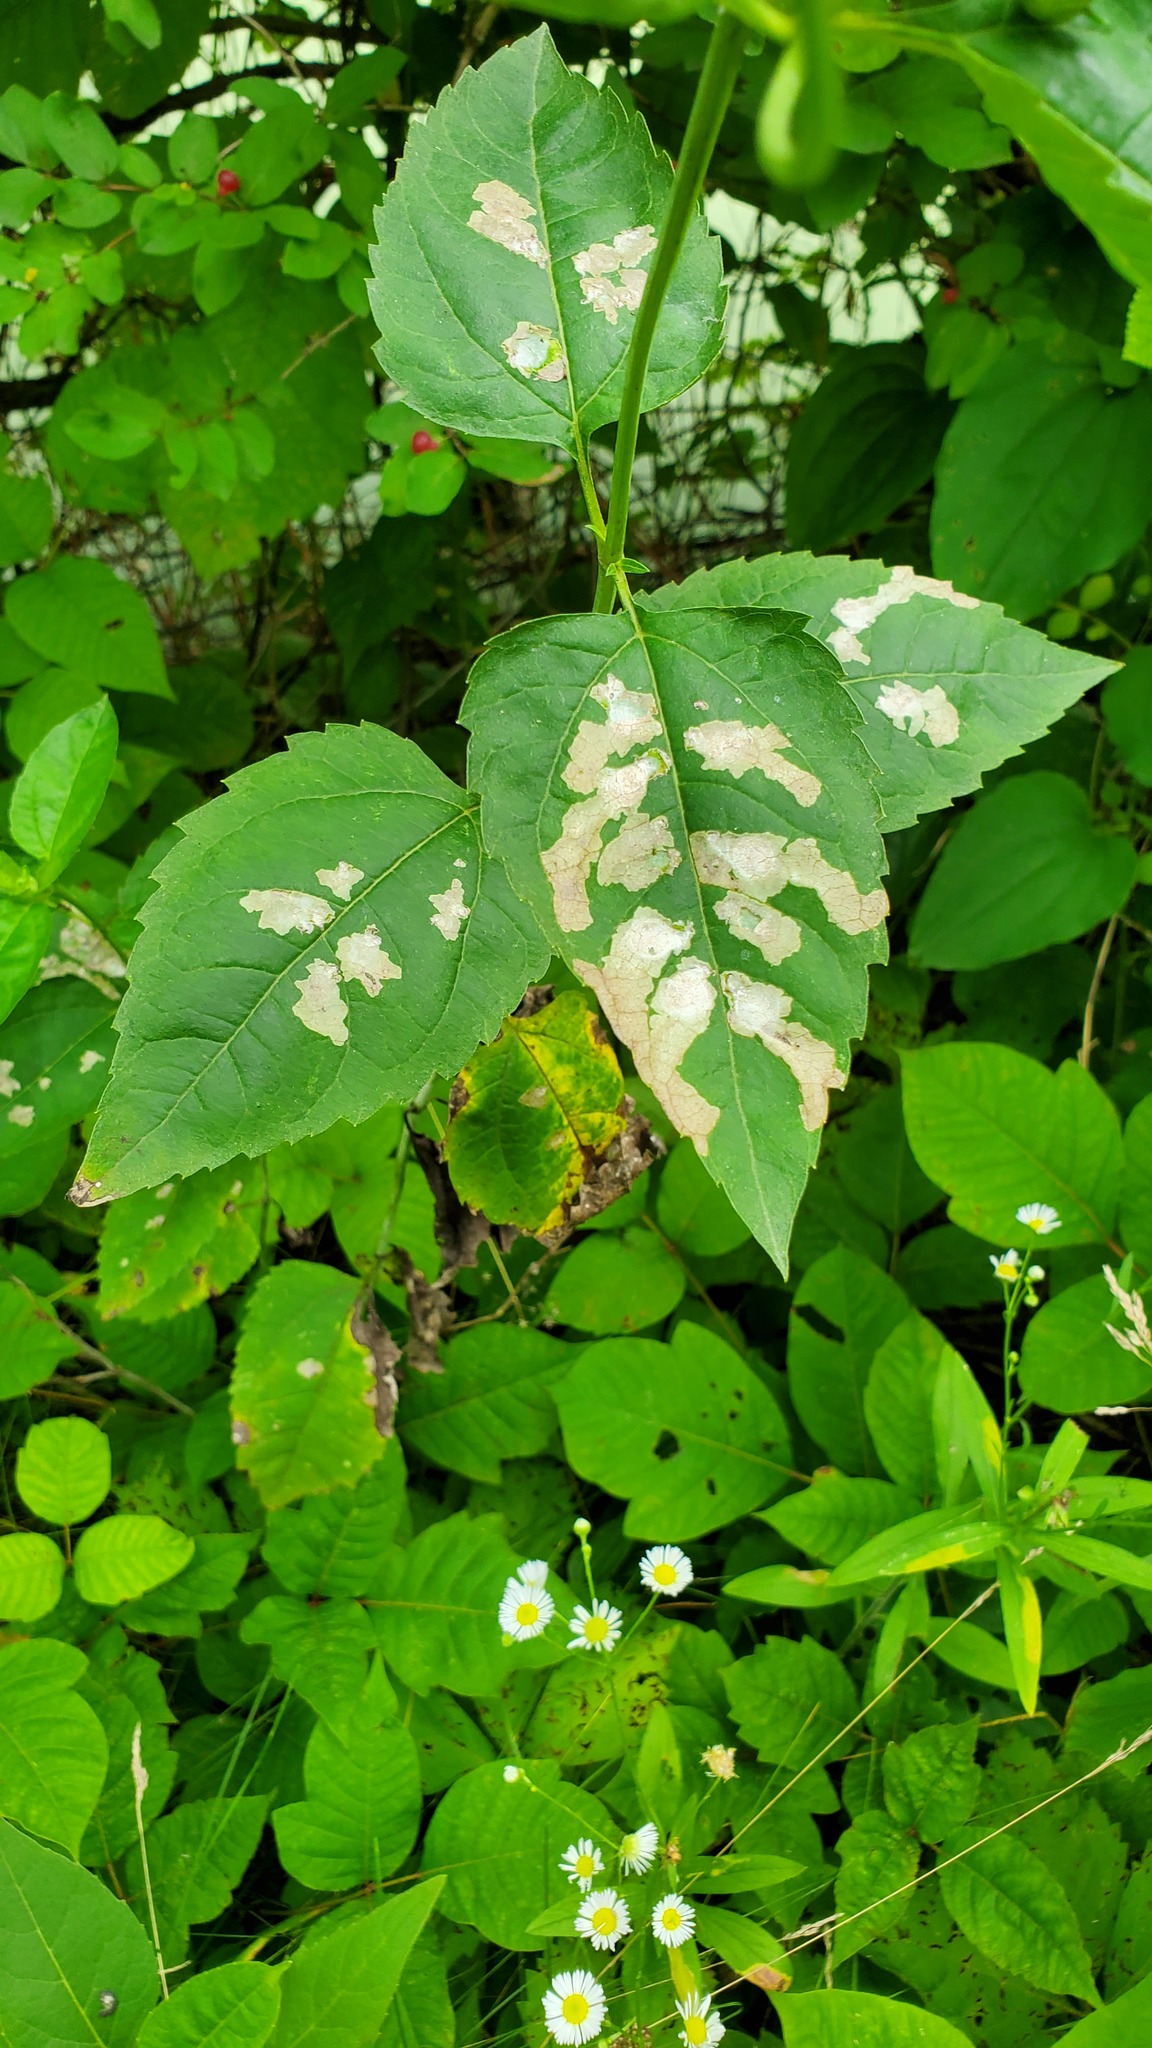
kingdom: Plantae
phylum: Tracheophyta
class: Magnoliopsida
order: Asterales
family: Asteraceae
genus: Heliopsis
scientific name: Heliopsis helianthoides
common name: False sunflower
